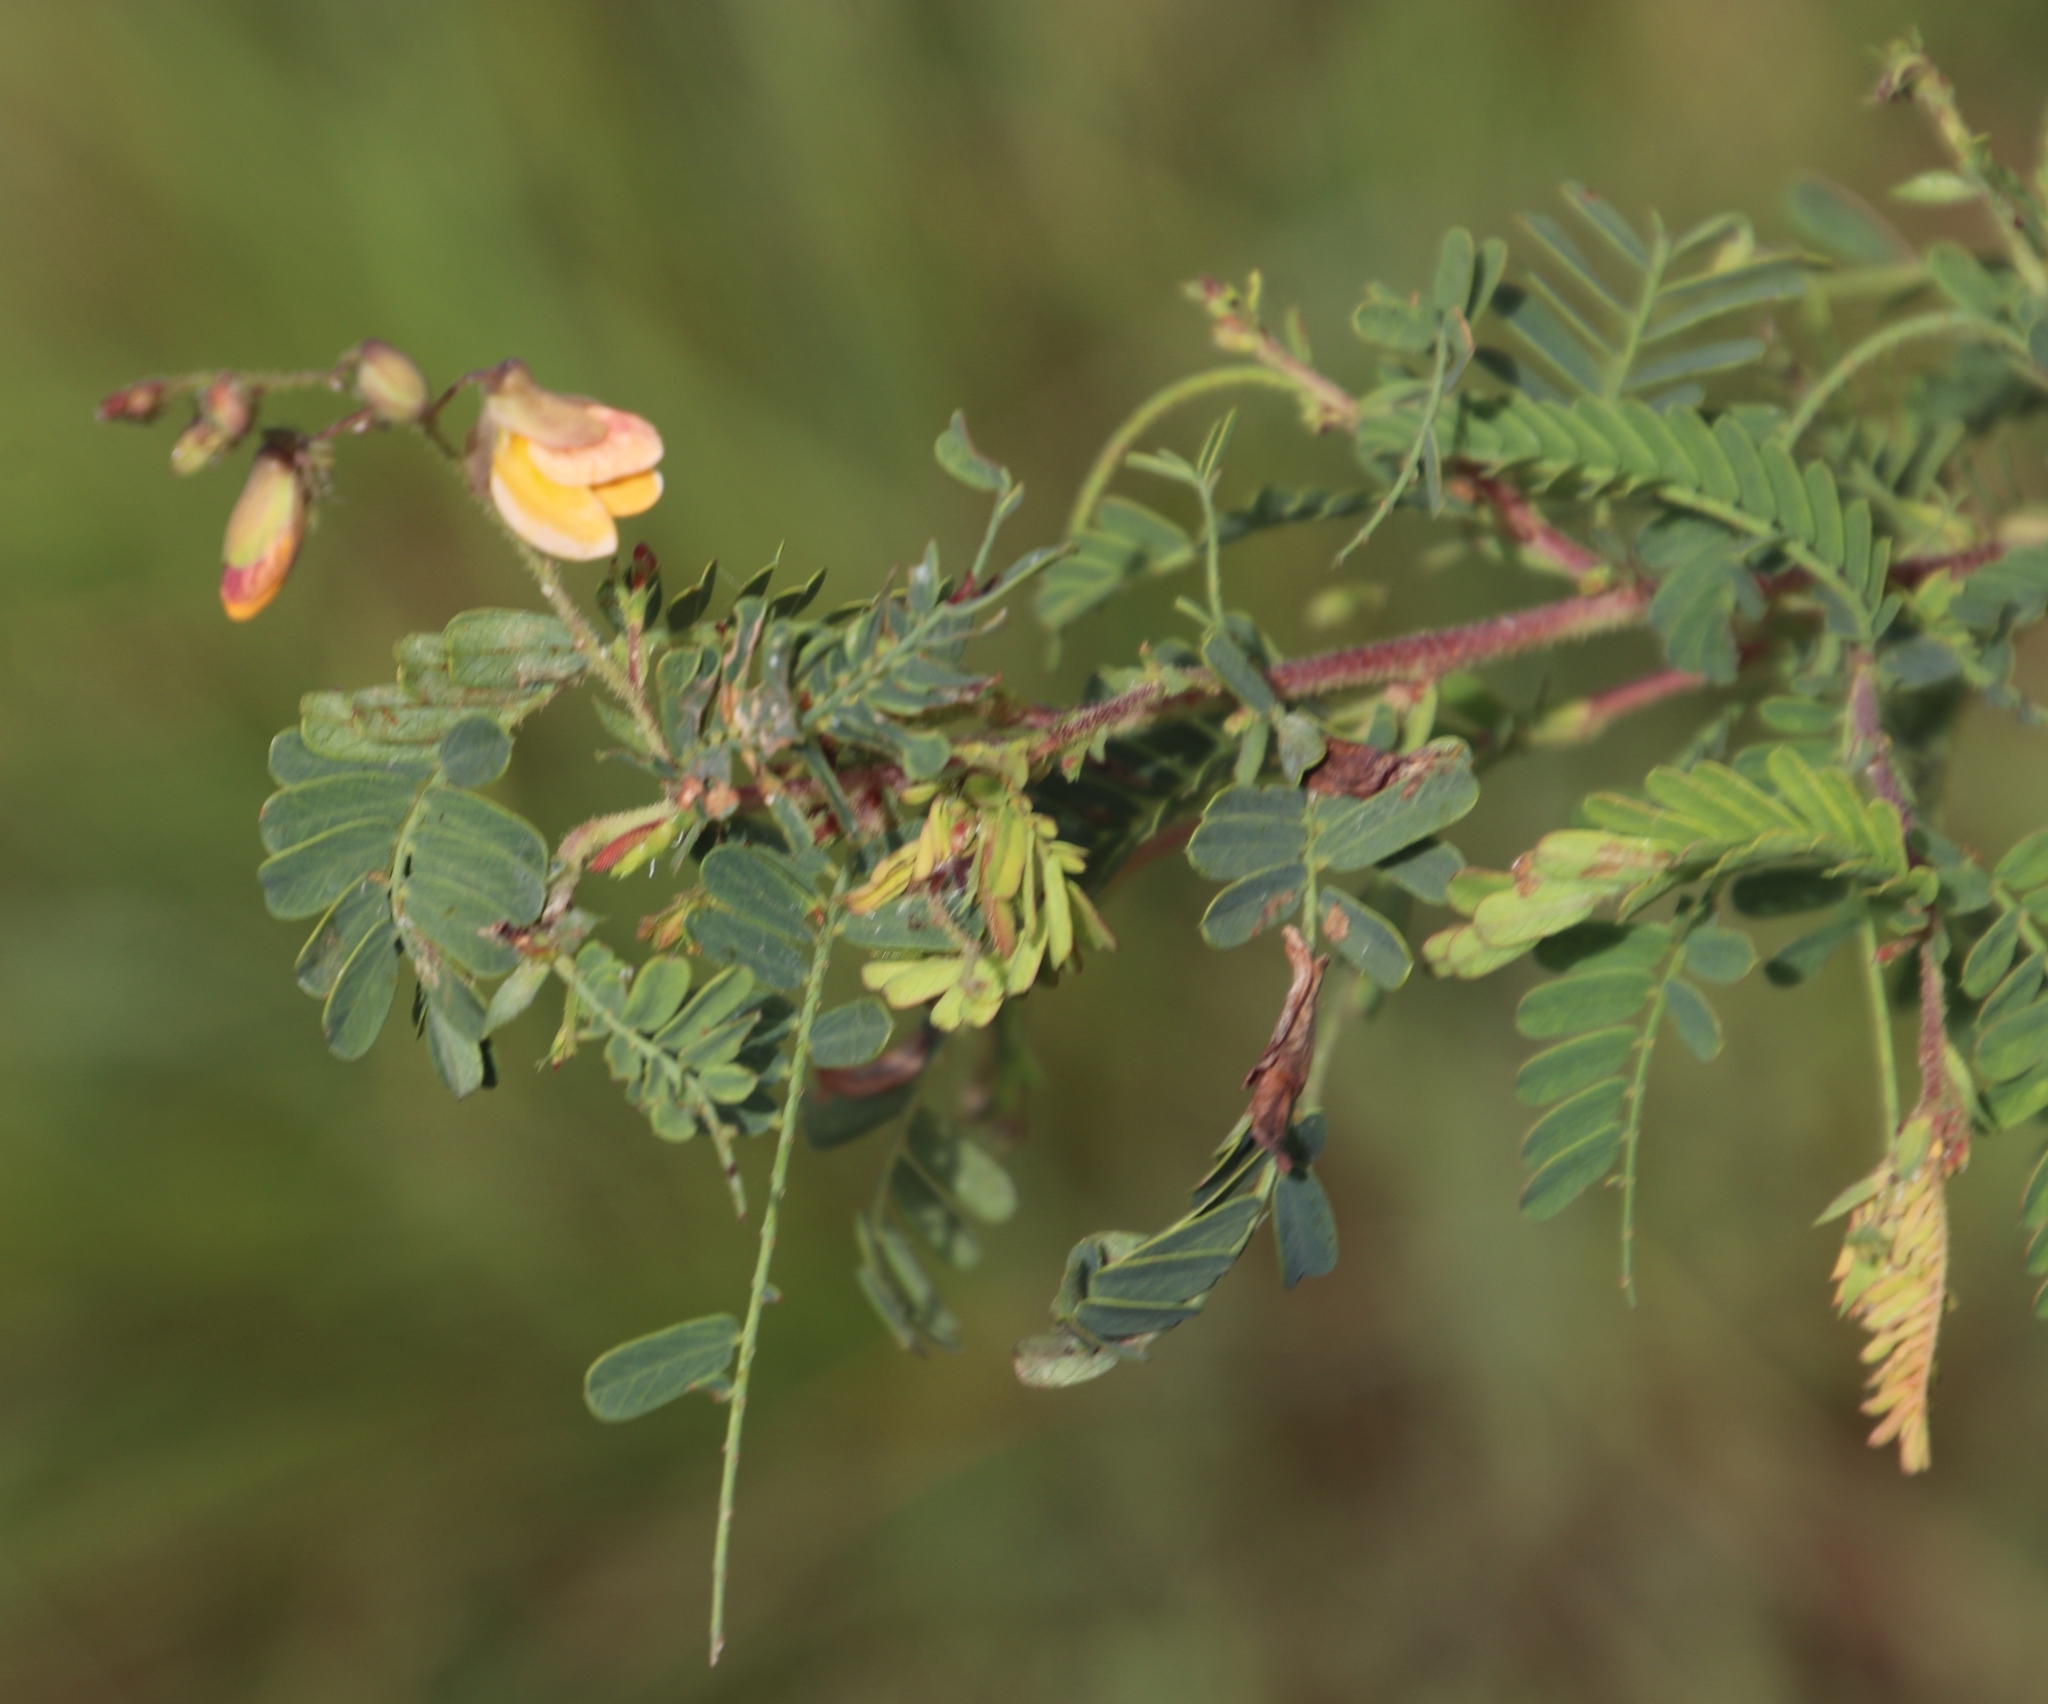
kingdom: Plantae
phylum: Tracheophyta
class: Magnoliopsida
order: Fabales
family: Fabaceae
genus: Aeschynomene
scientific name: Aeschynomene rehmannii
